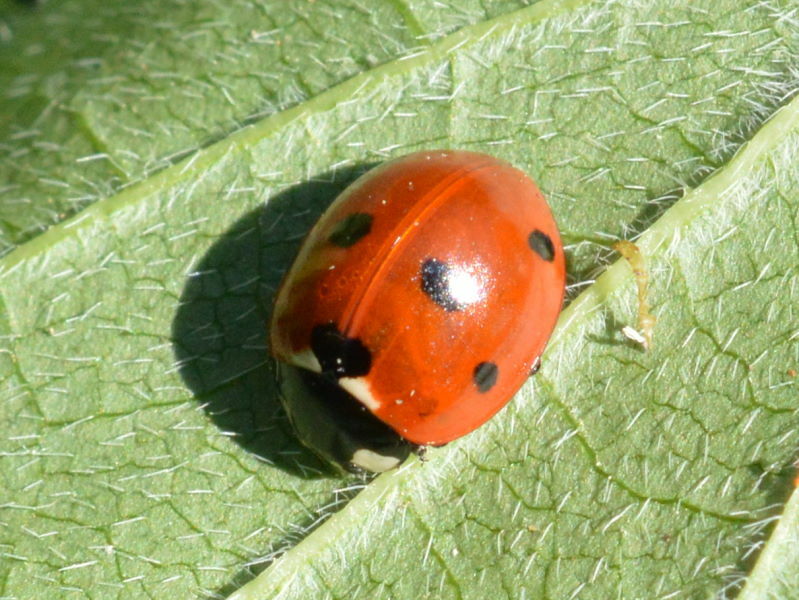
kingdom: Animalia
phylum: Arthropoda
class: Insecta
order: Coleoptera
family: Coccinellidae
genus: Coccinella
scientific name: Coccinella septempunctata
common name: Sevenspotted lady beetle
